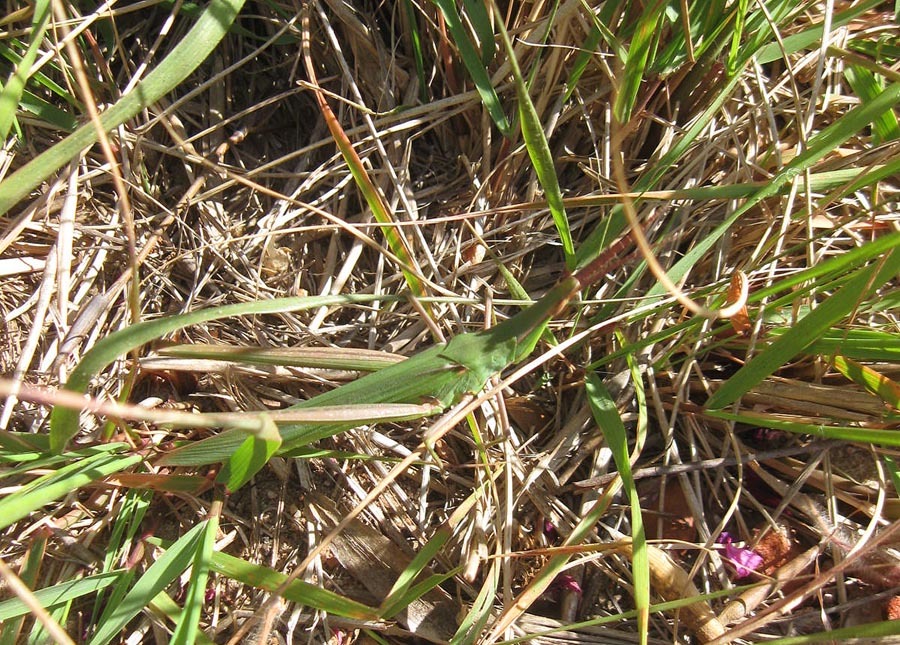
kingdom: Animalia
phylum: Arthropoda
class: Insecta
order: Orthoptera
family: Acrididae
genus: Acrida
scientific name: Acrida acuminata
